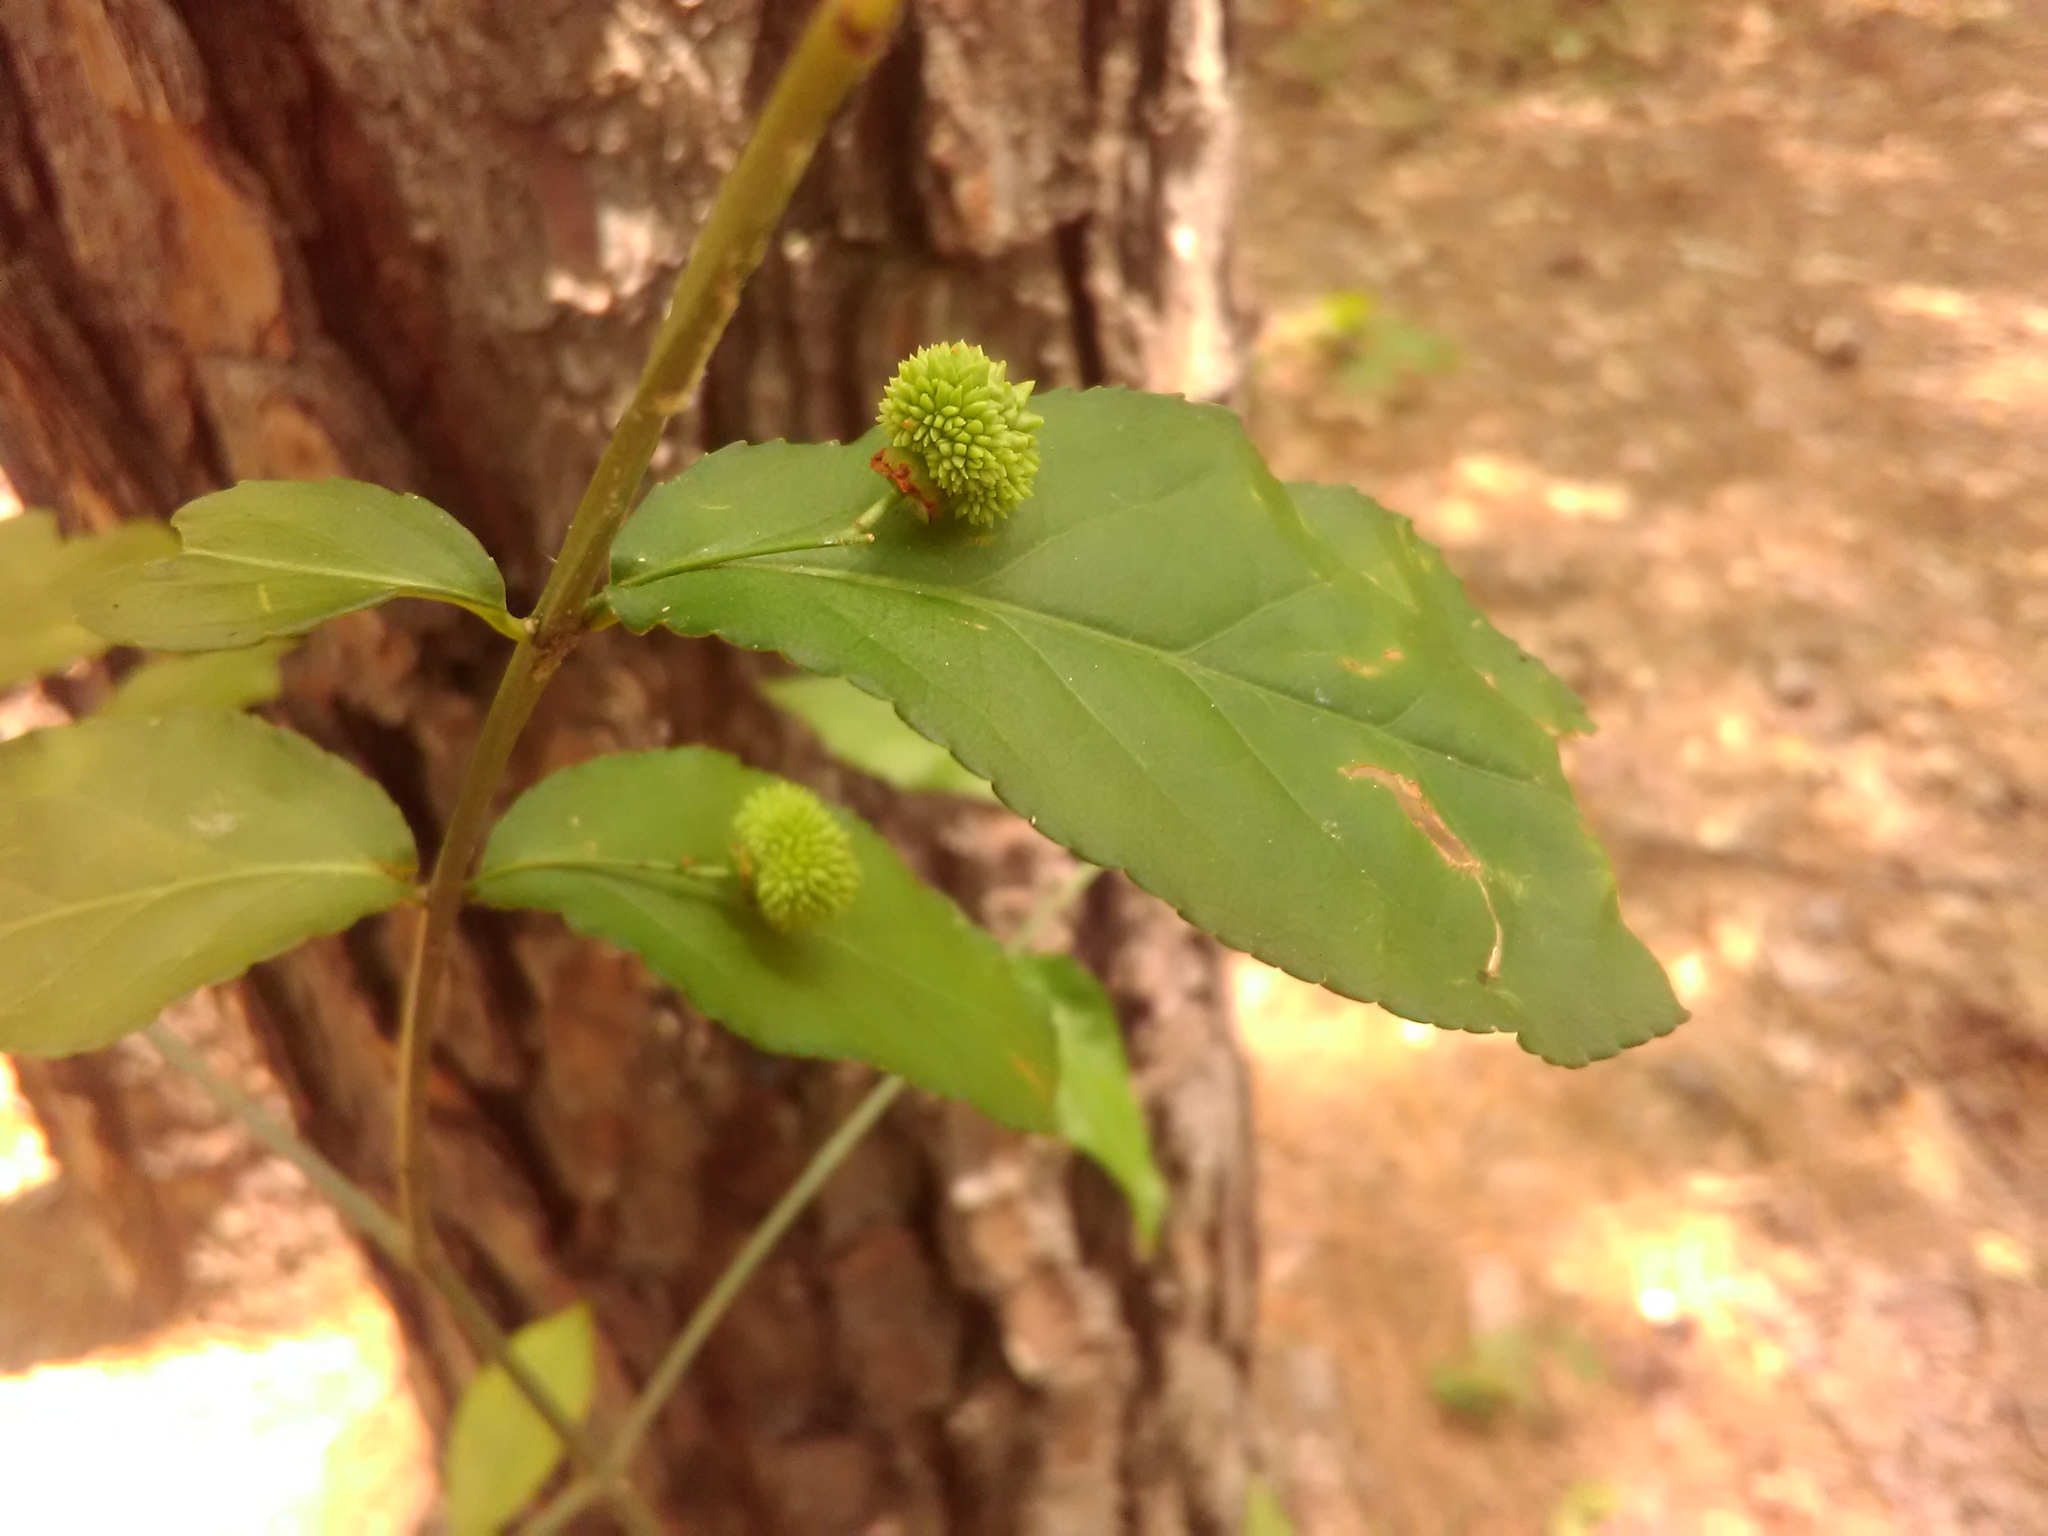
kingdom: Plantae
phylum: Tracheophyta
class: Magnoliopsida
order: Celastrales
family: Celastraceae
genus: Euonymus
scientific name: Euonymus americanus
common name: Bursting-heart
